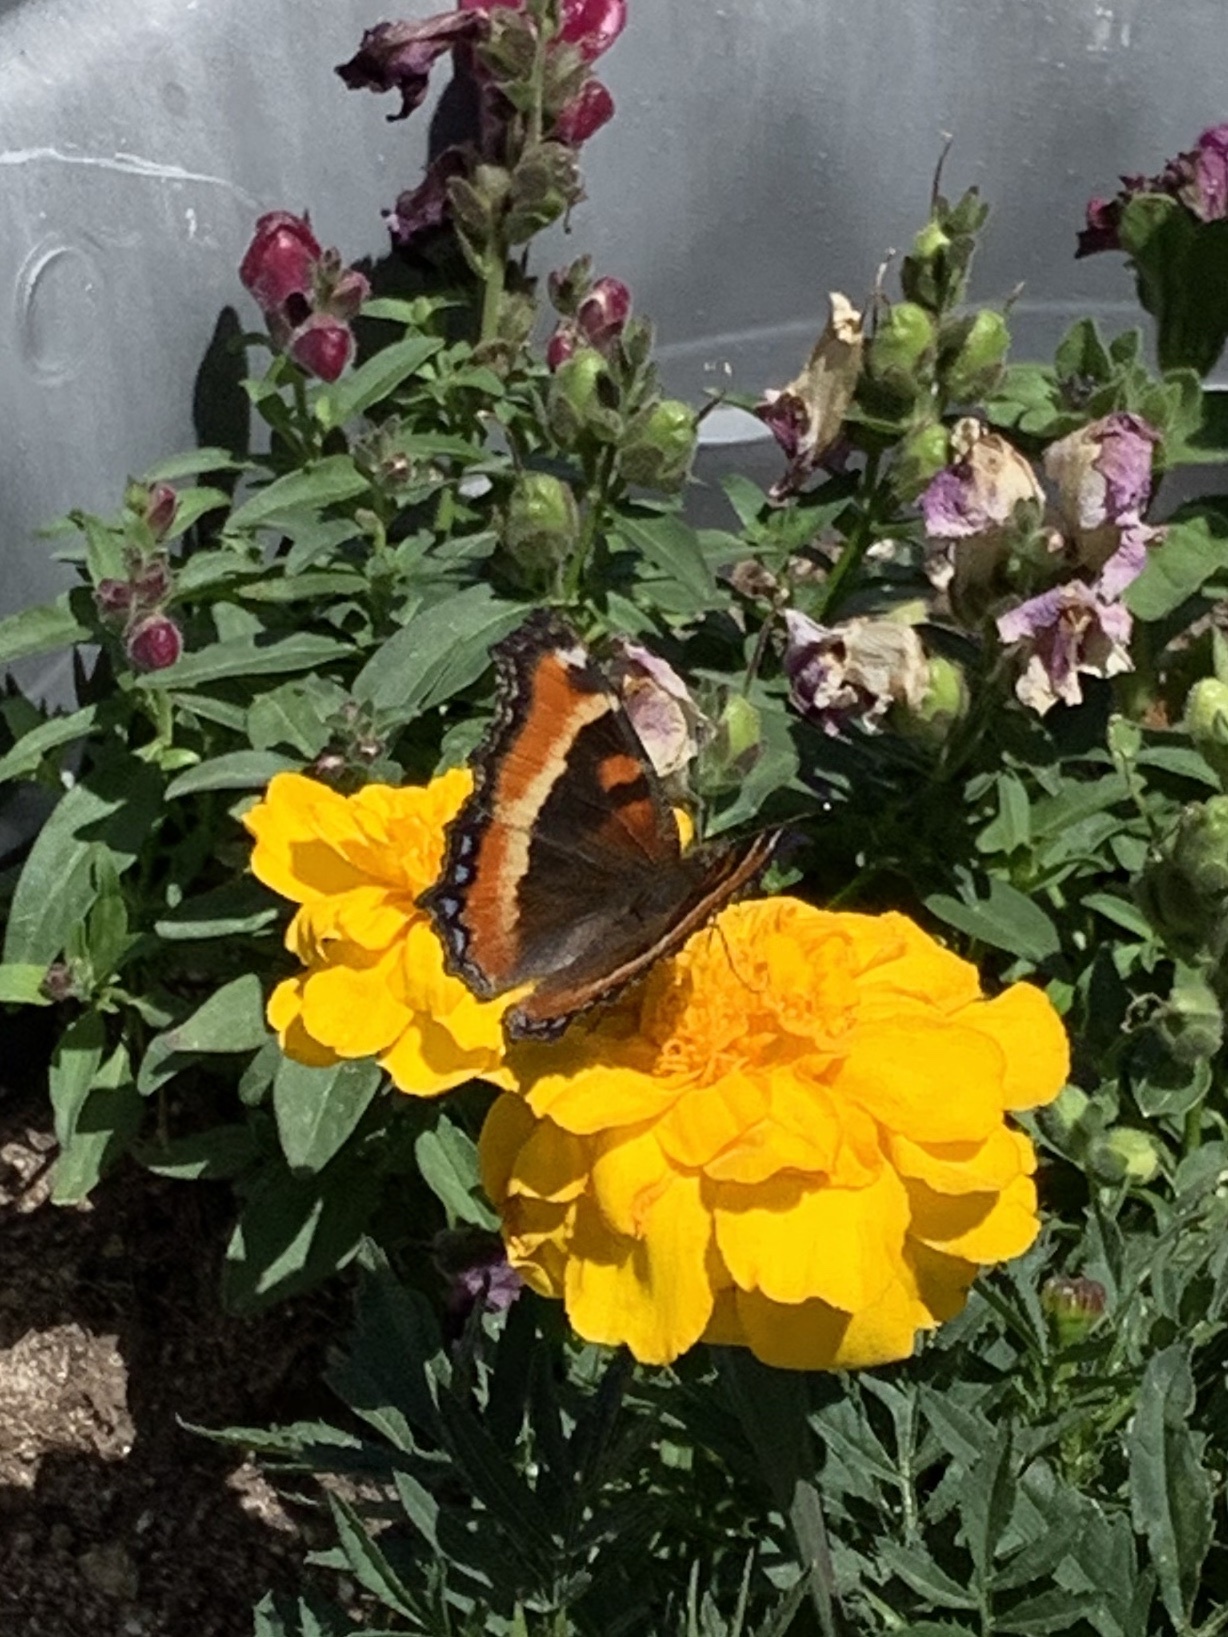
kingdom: Animalia
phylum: Arthropoda
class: Insecta
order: Lepidoptera
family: Nymphalidae
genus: Aglais
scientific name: Aglais milberti
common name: Milbert's tortoiseshell
